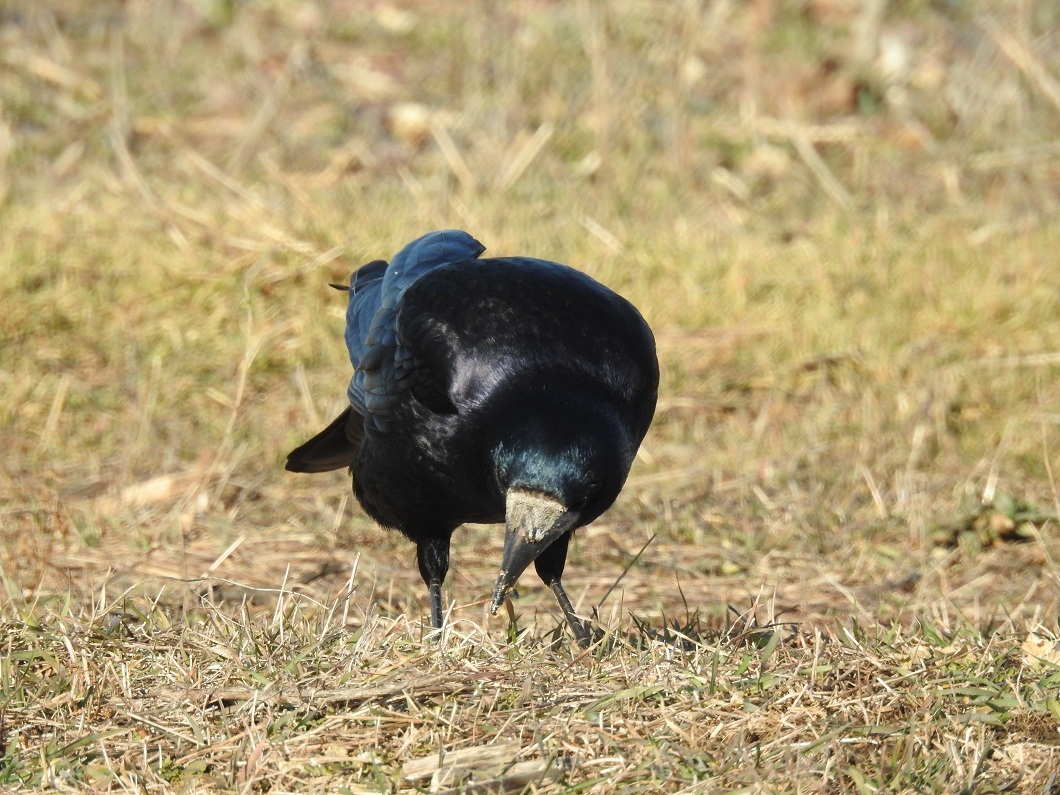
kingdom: Animalia
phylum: Chordata
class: Aves
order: Passeriformes
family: Corvidae
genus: Corvus
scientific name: Corvus frugilegus
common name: Rook
